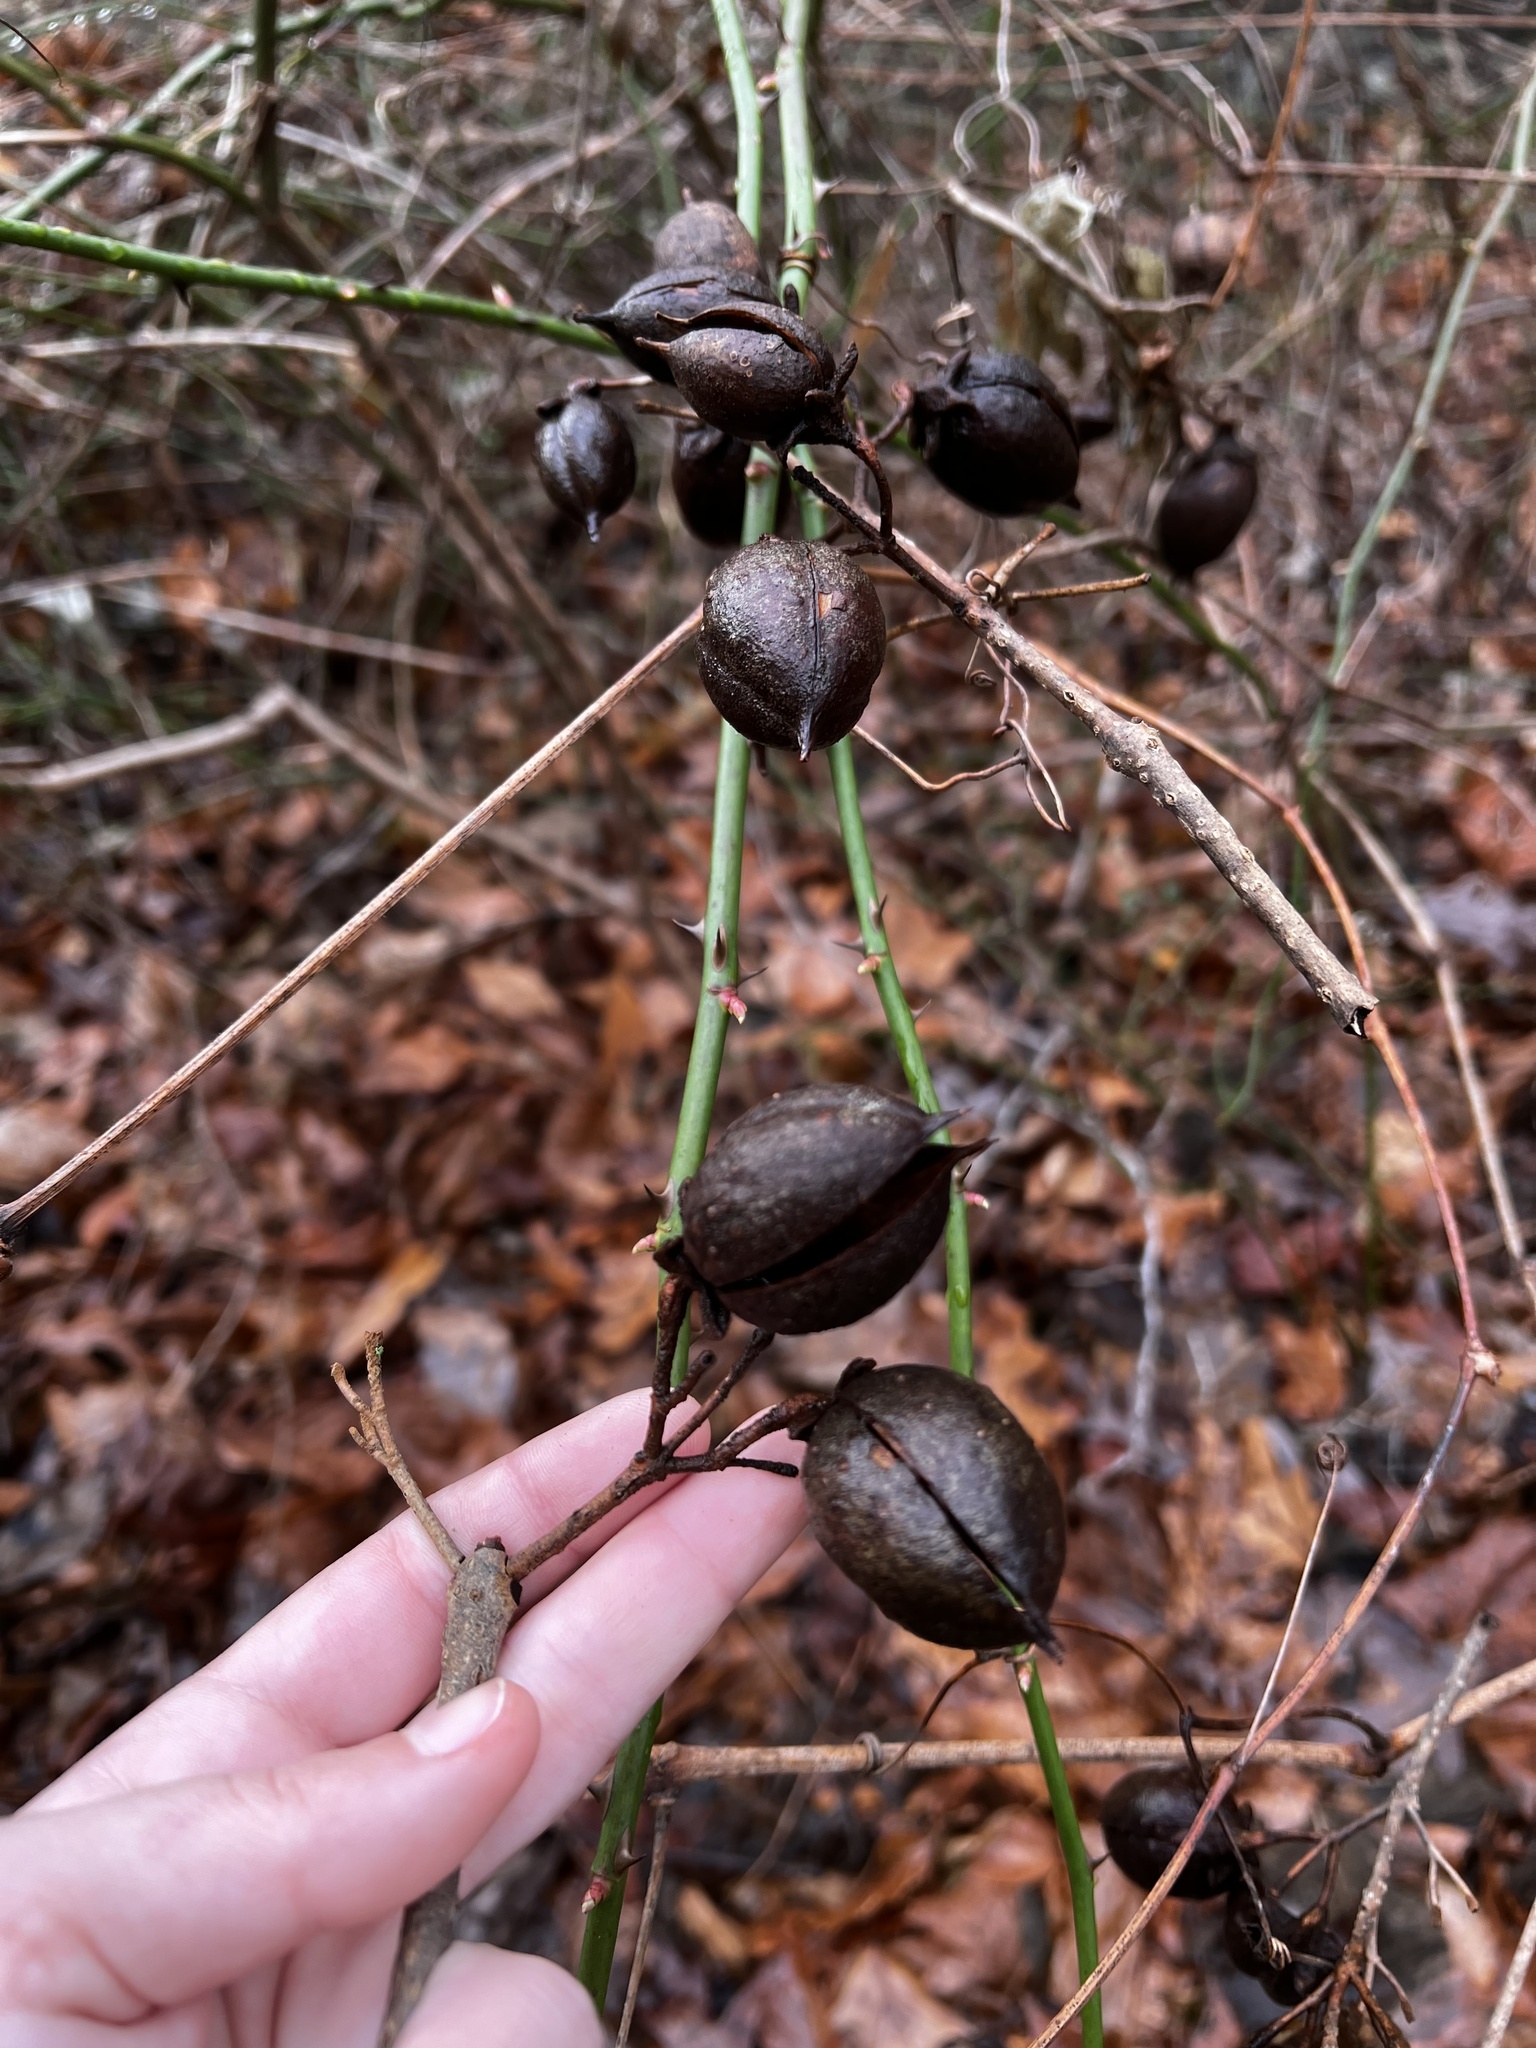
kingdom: Plantae
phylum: Tracheophyta
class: Magnoliopsida
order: Lamiales
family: Paulowniaceae
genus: Paulownia
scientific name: Paulownia tomentosa
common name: Foxglove-tree
